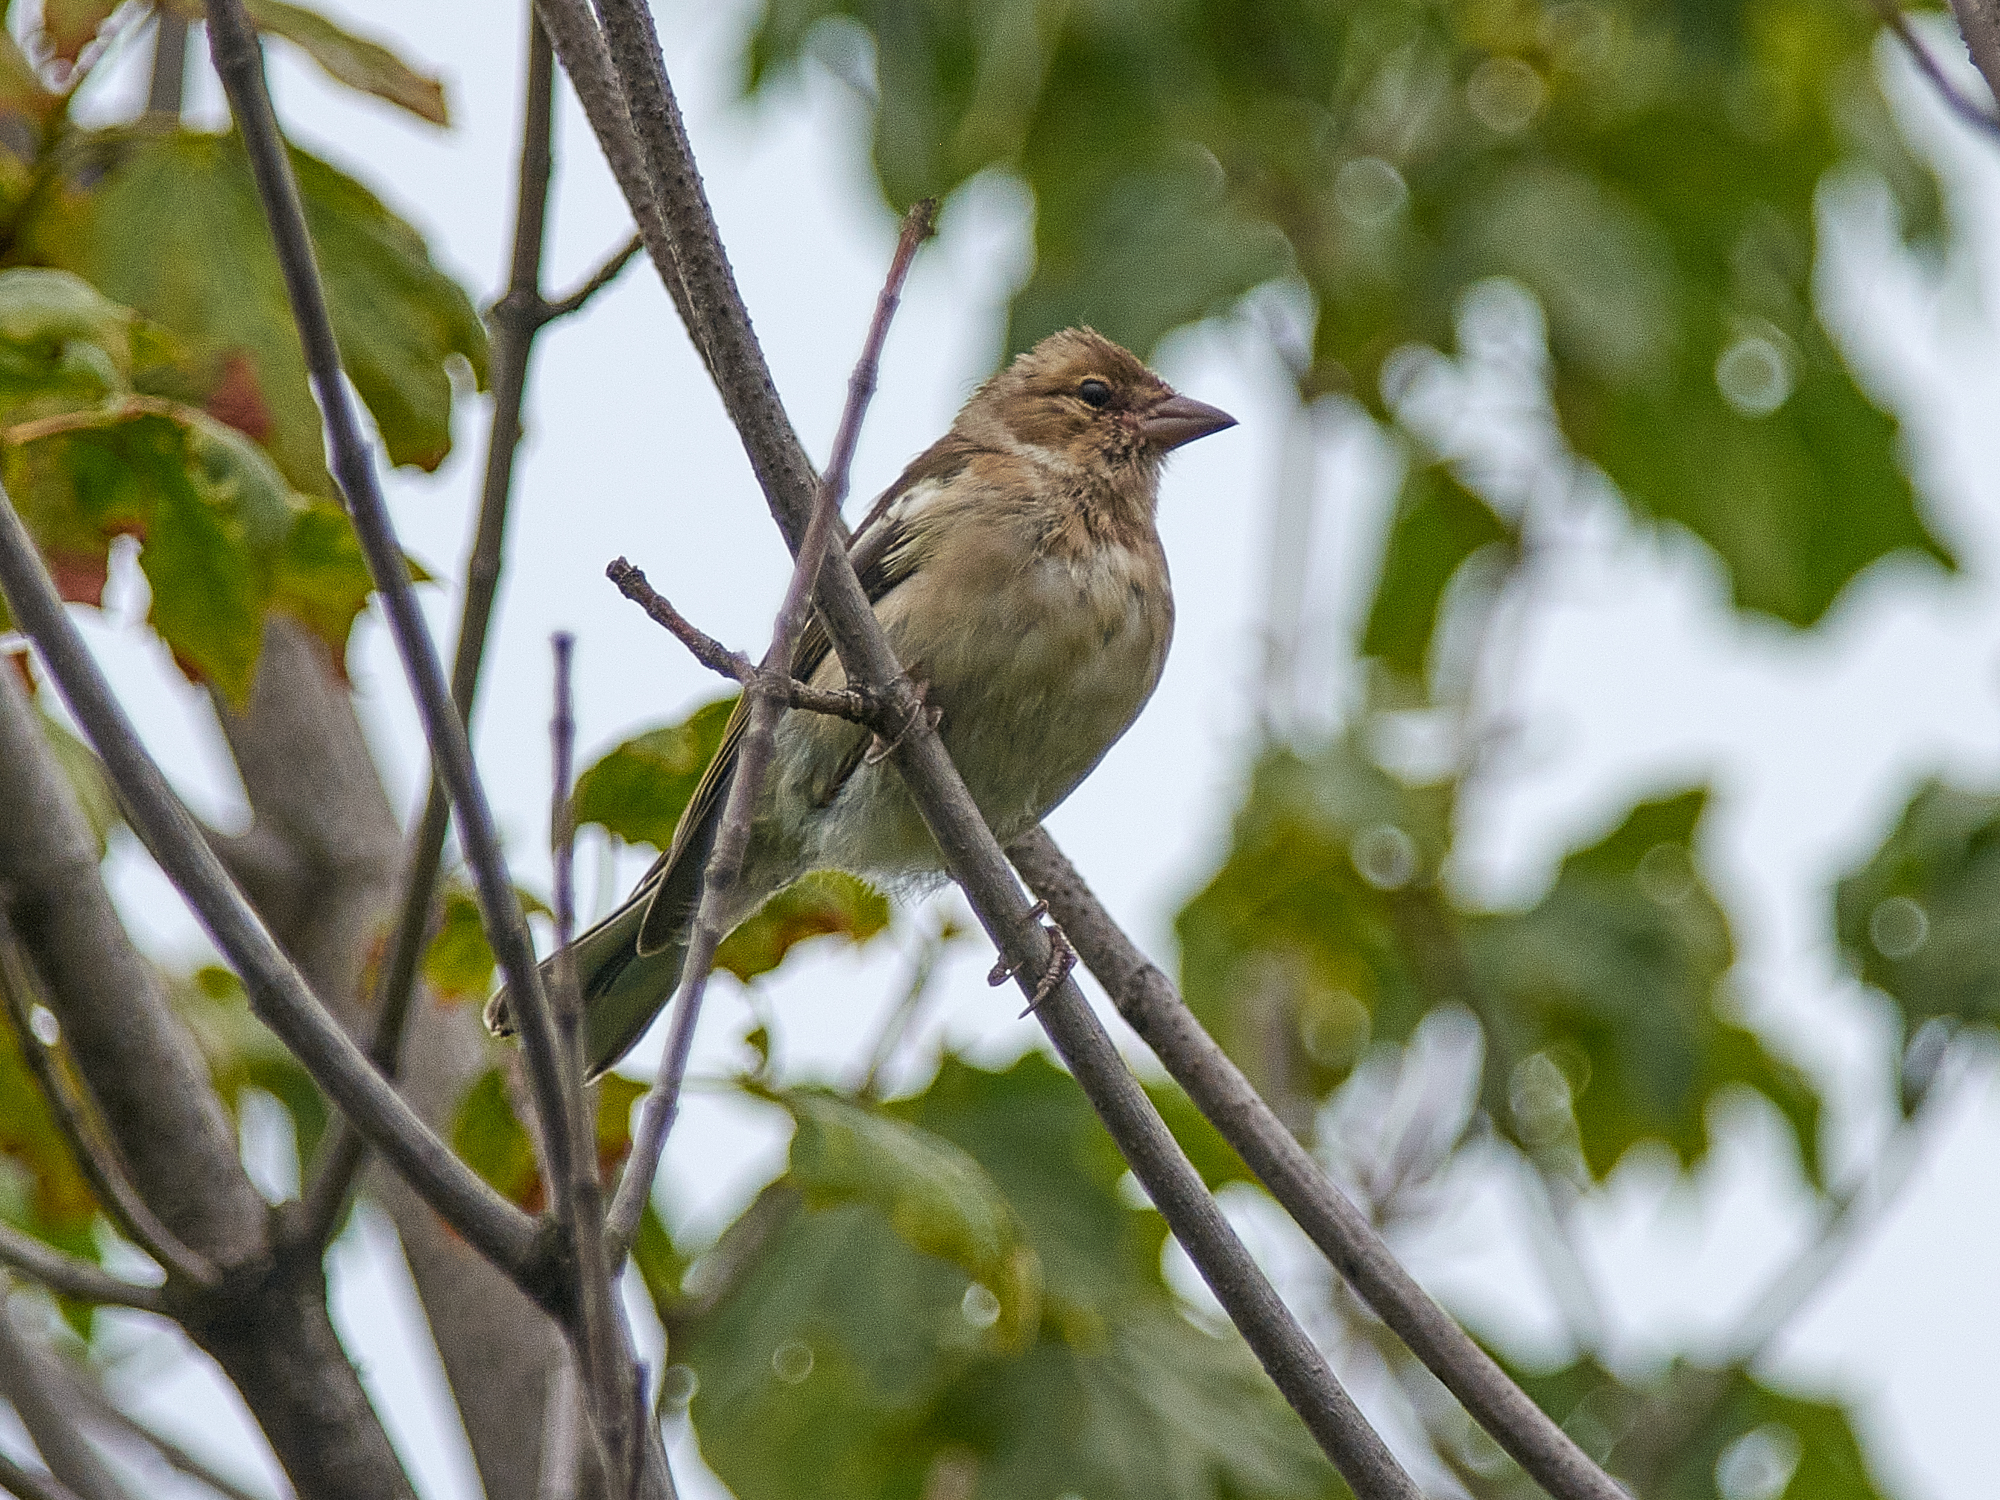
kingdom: Animalia
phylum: Chordata
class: Aves
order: Passeriformes
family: Fringillidae
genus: Fringilla
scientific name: Fringilla coelebs
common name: Common chaffinch
